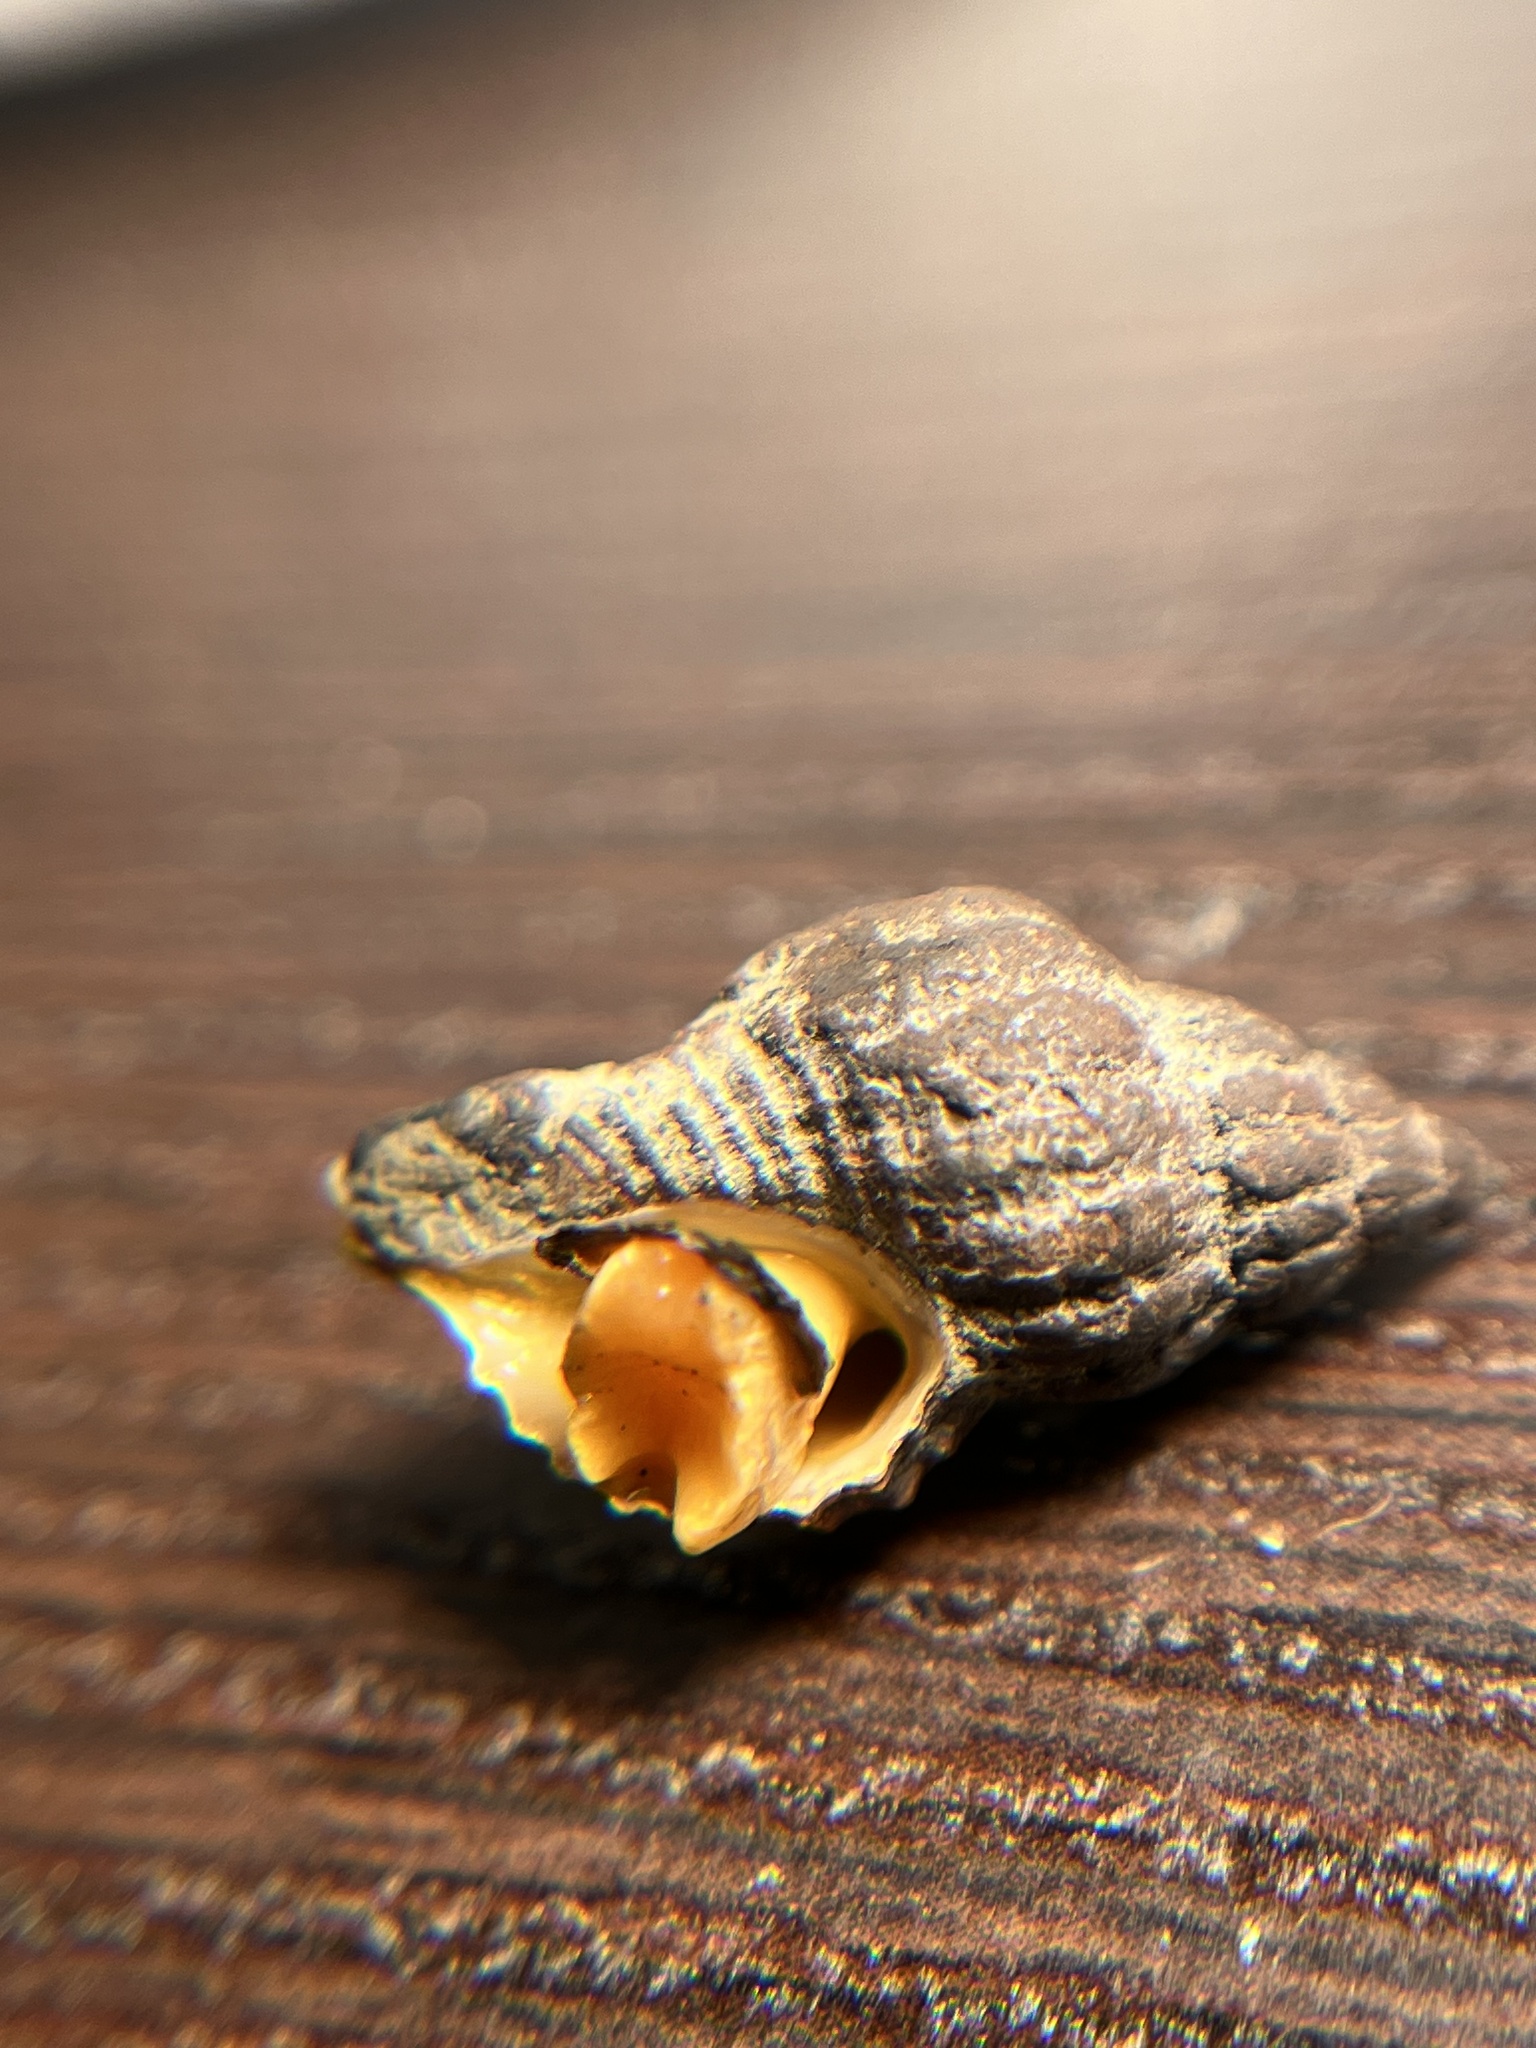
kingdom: Animalia
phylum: Mollusca
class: Gastropoda
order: Neogastropoda
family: Muricidae
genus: Urosalpinx
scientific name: Urosalpinx cinerea
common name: American sting winkle
